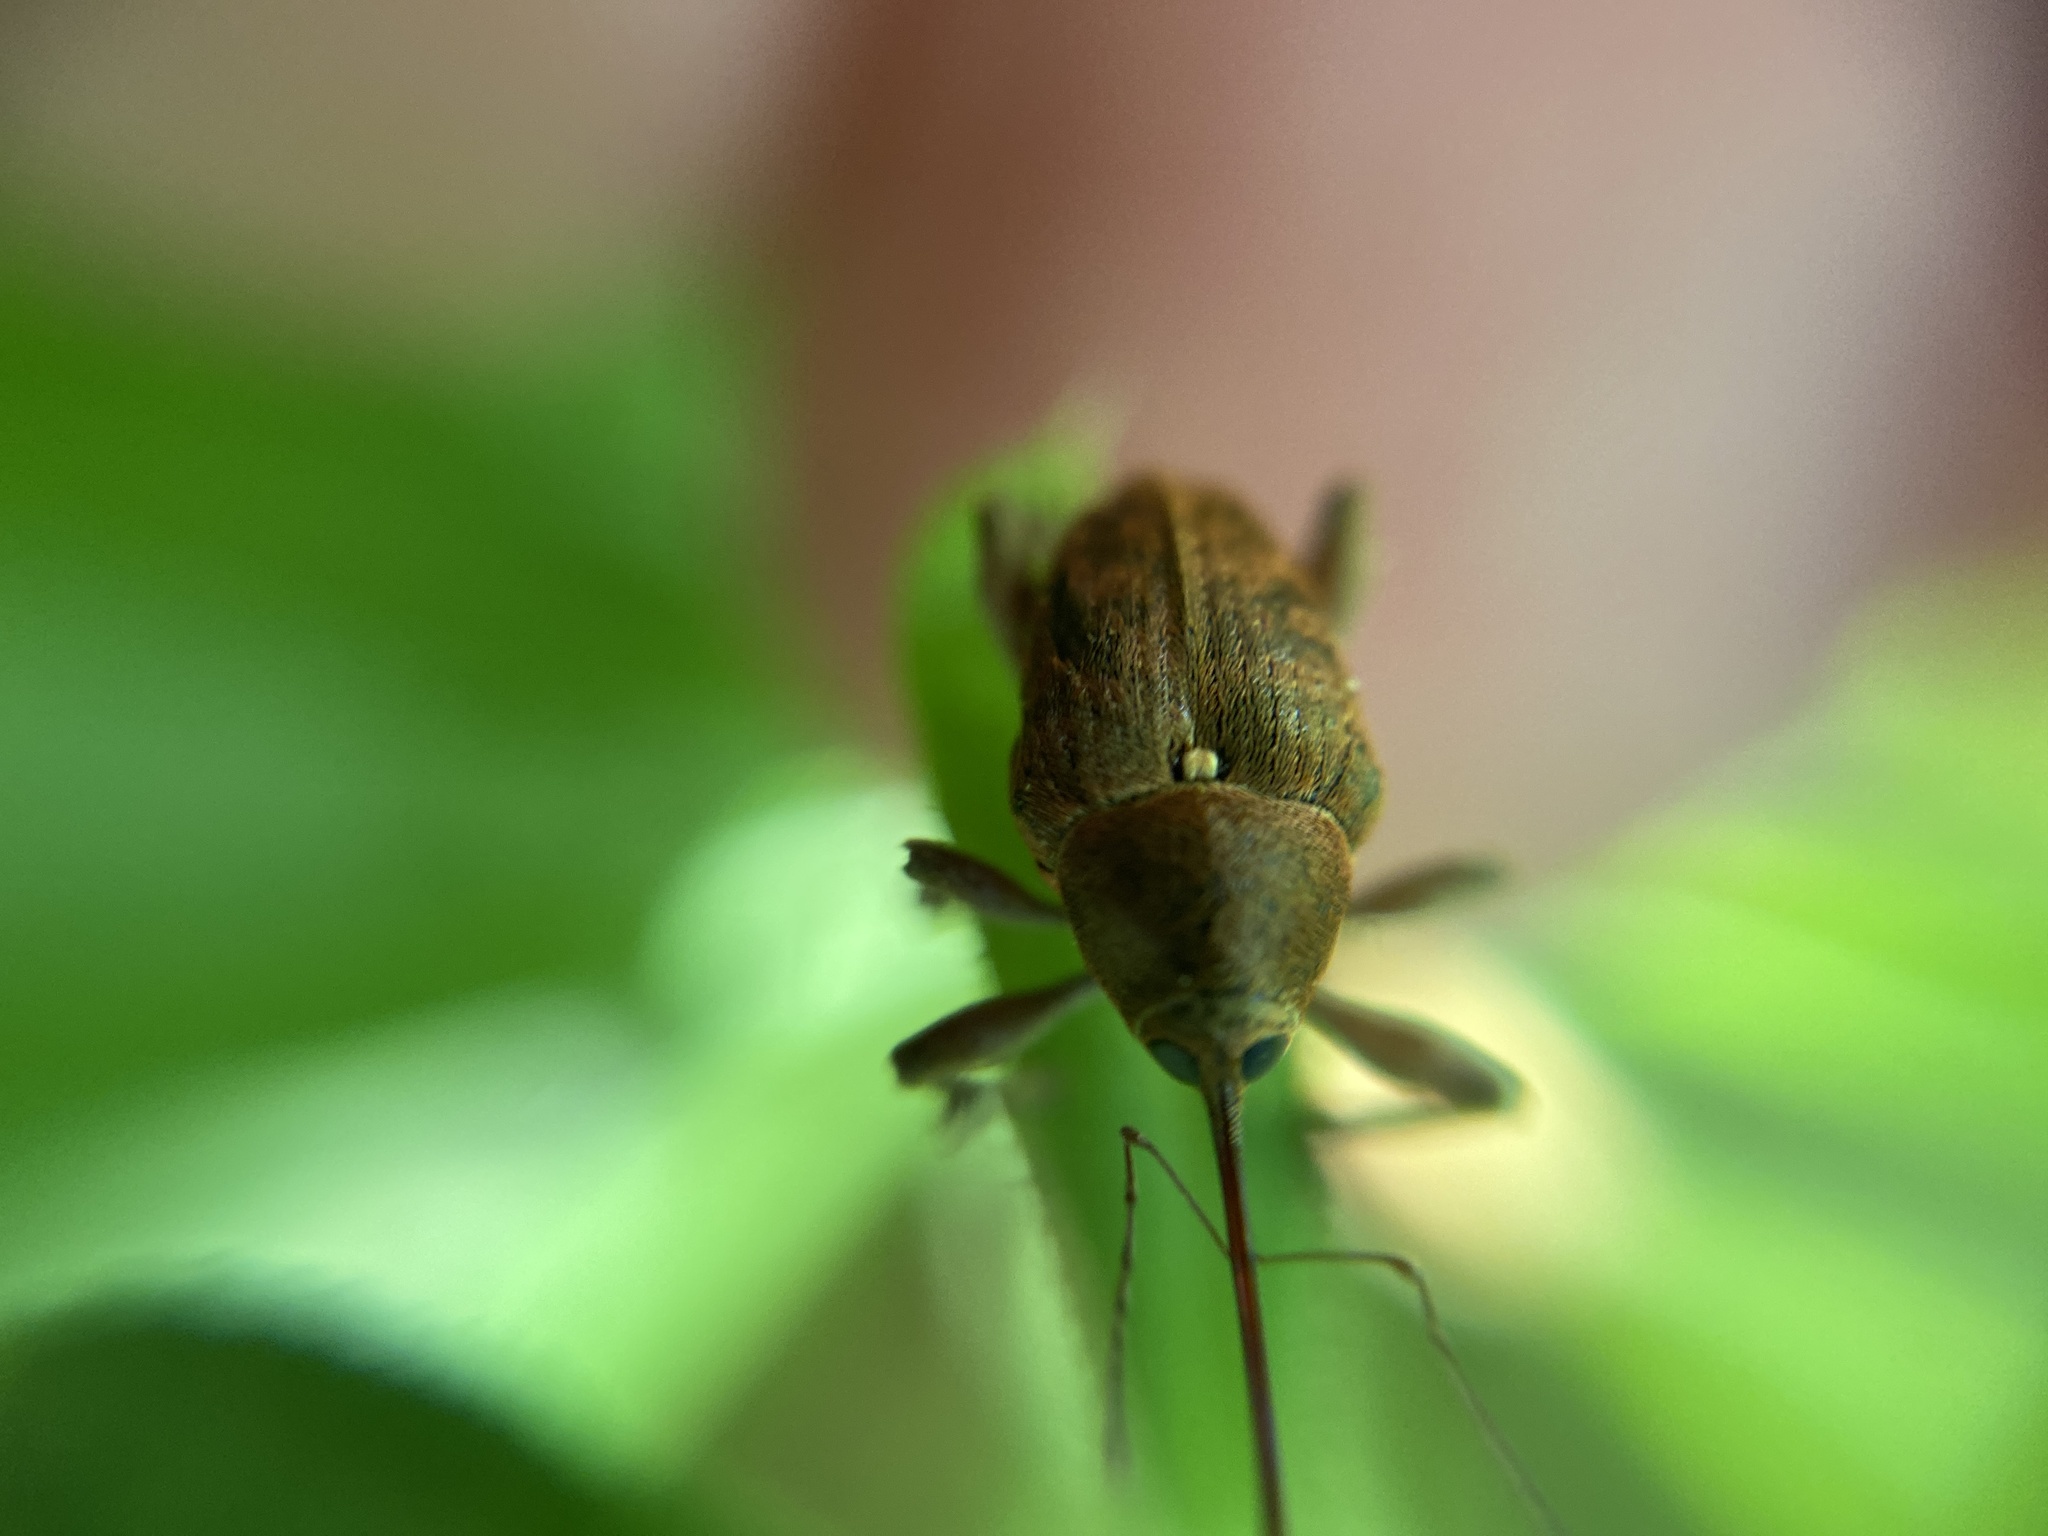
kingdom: Animalia
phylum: Arthropoda
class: Insecta
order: Coleoptera
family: Curculionidae
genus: Curculio
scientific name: Curculio glandium
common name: Acorn weevil
